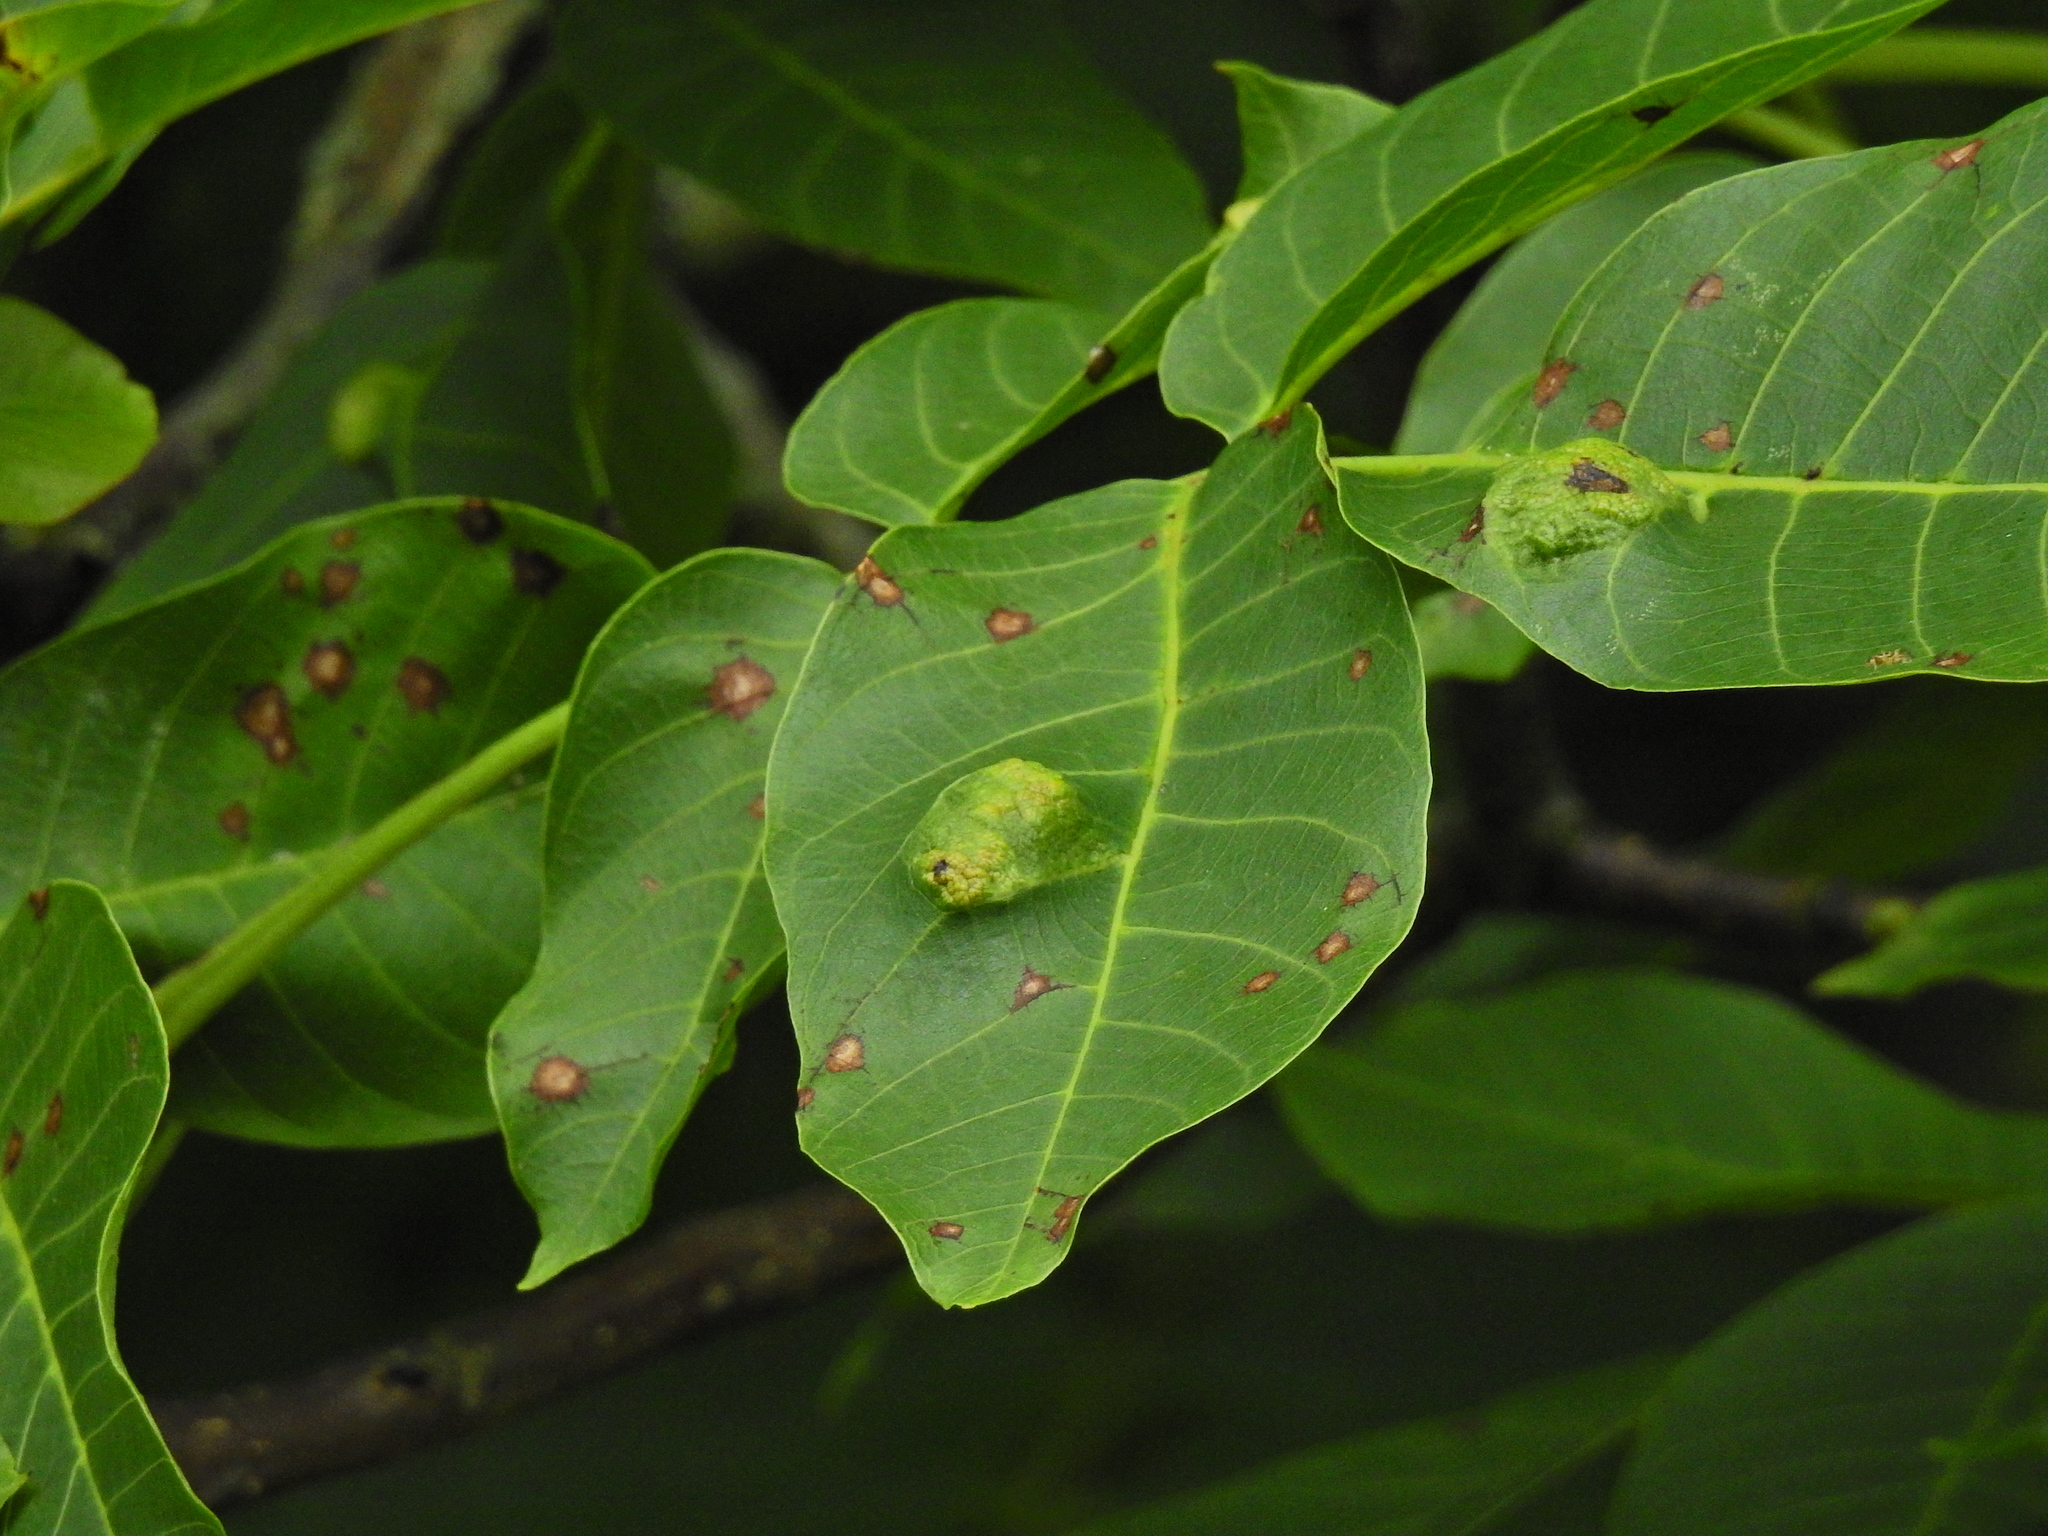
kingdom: Animalia
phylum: Arthropoda
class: Arachnida
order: Trombidiformes
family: Eriophyidae
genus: Aceria
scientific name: Aceria erinea
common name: Persian walnut erineum mite
